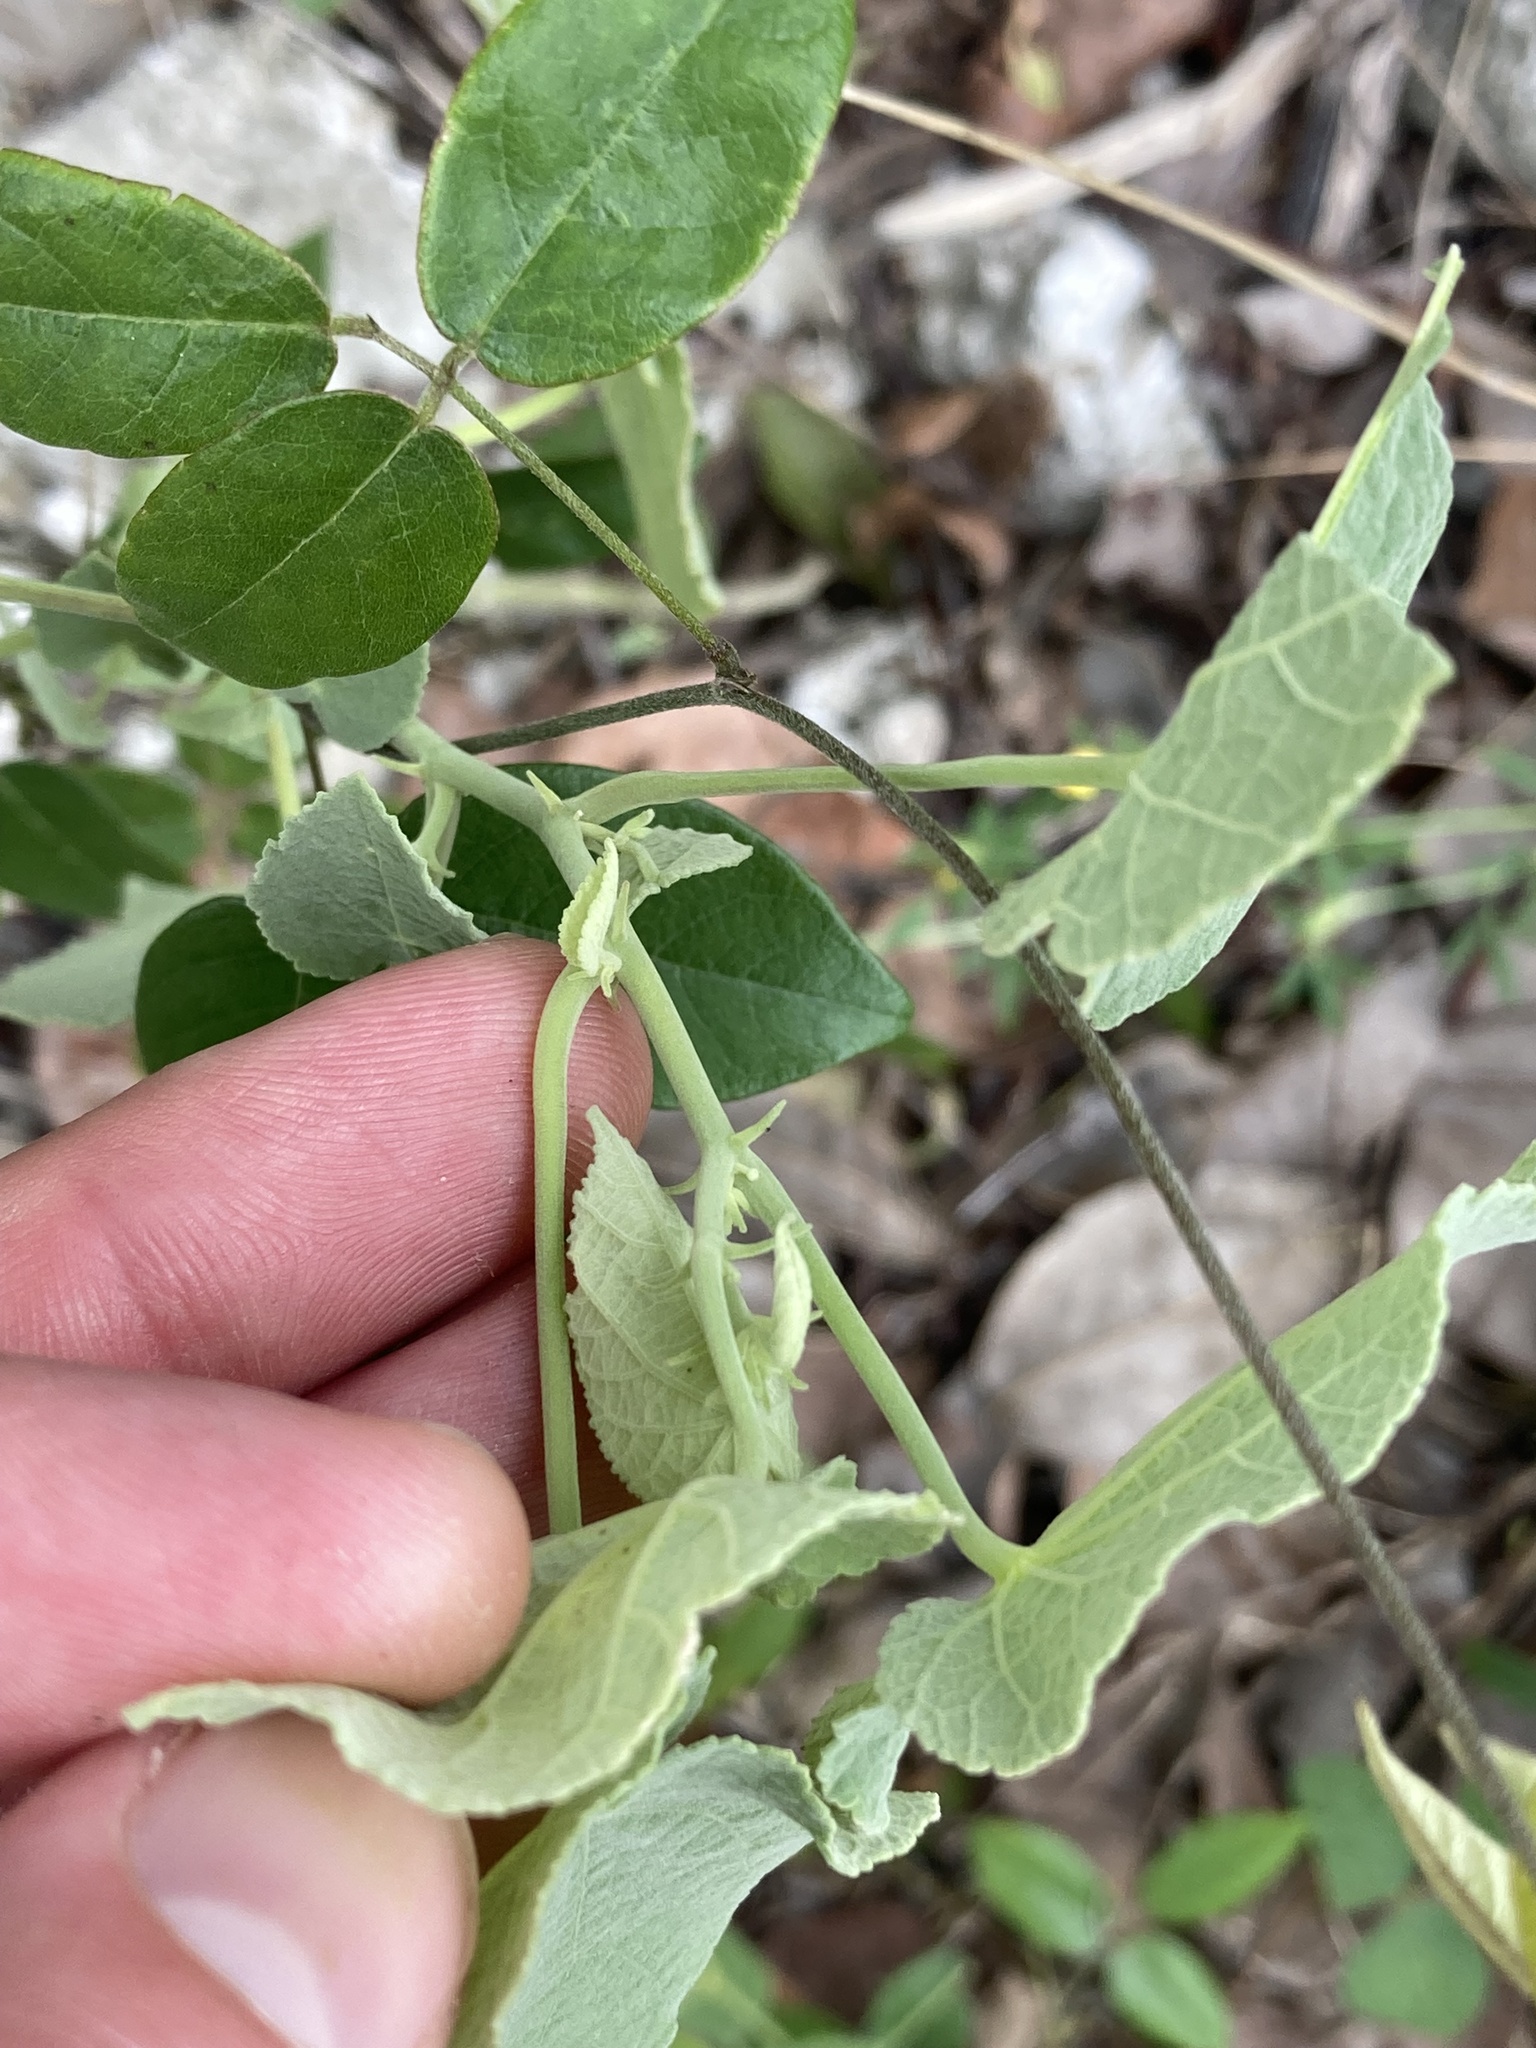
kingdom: Plantae
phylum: Tracheophyta
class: Magnoliopsida
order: Malvales
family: Malvaceae
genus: Herissantia
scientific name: Herissantia crispa
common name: Bladdermallow
